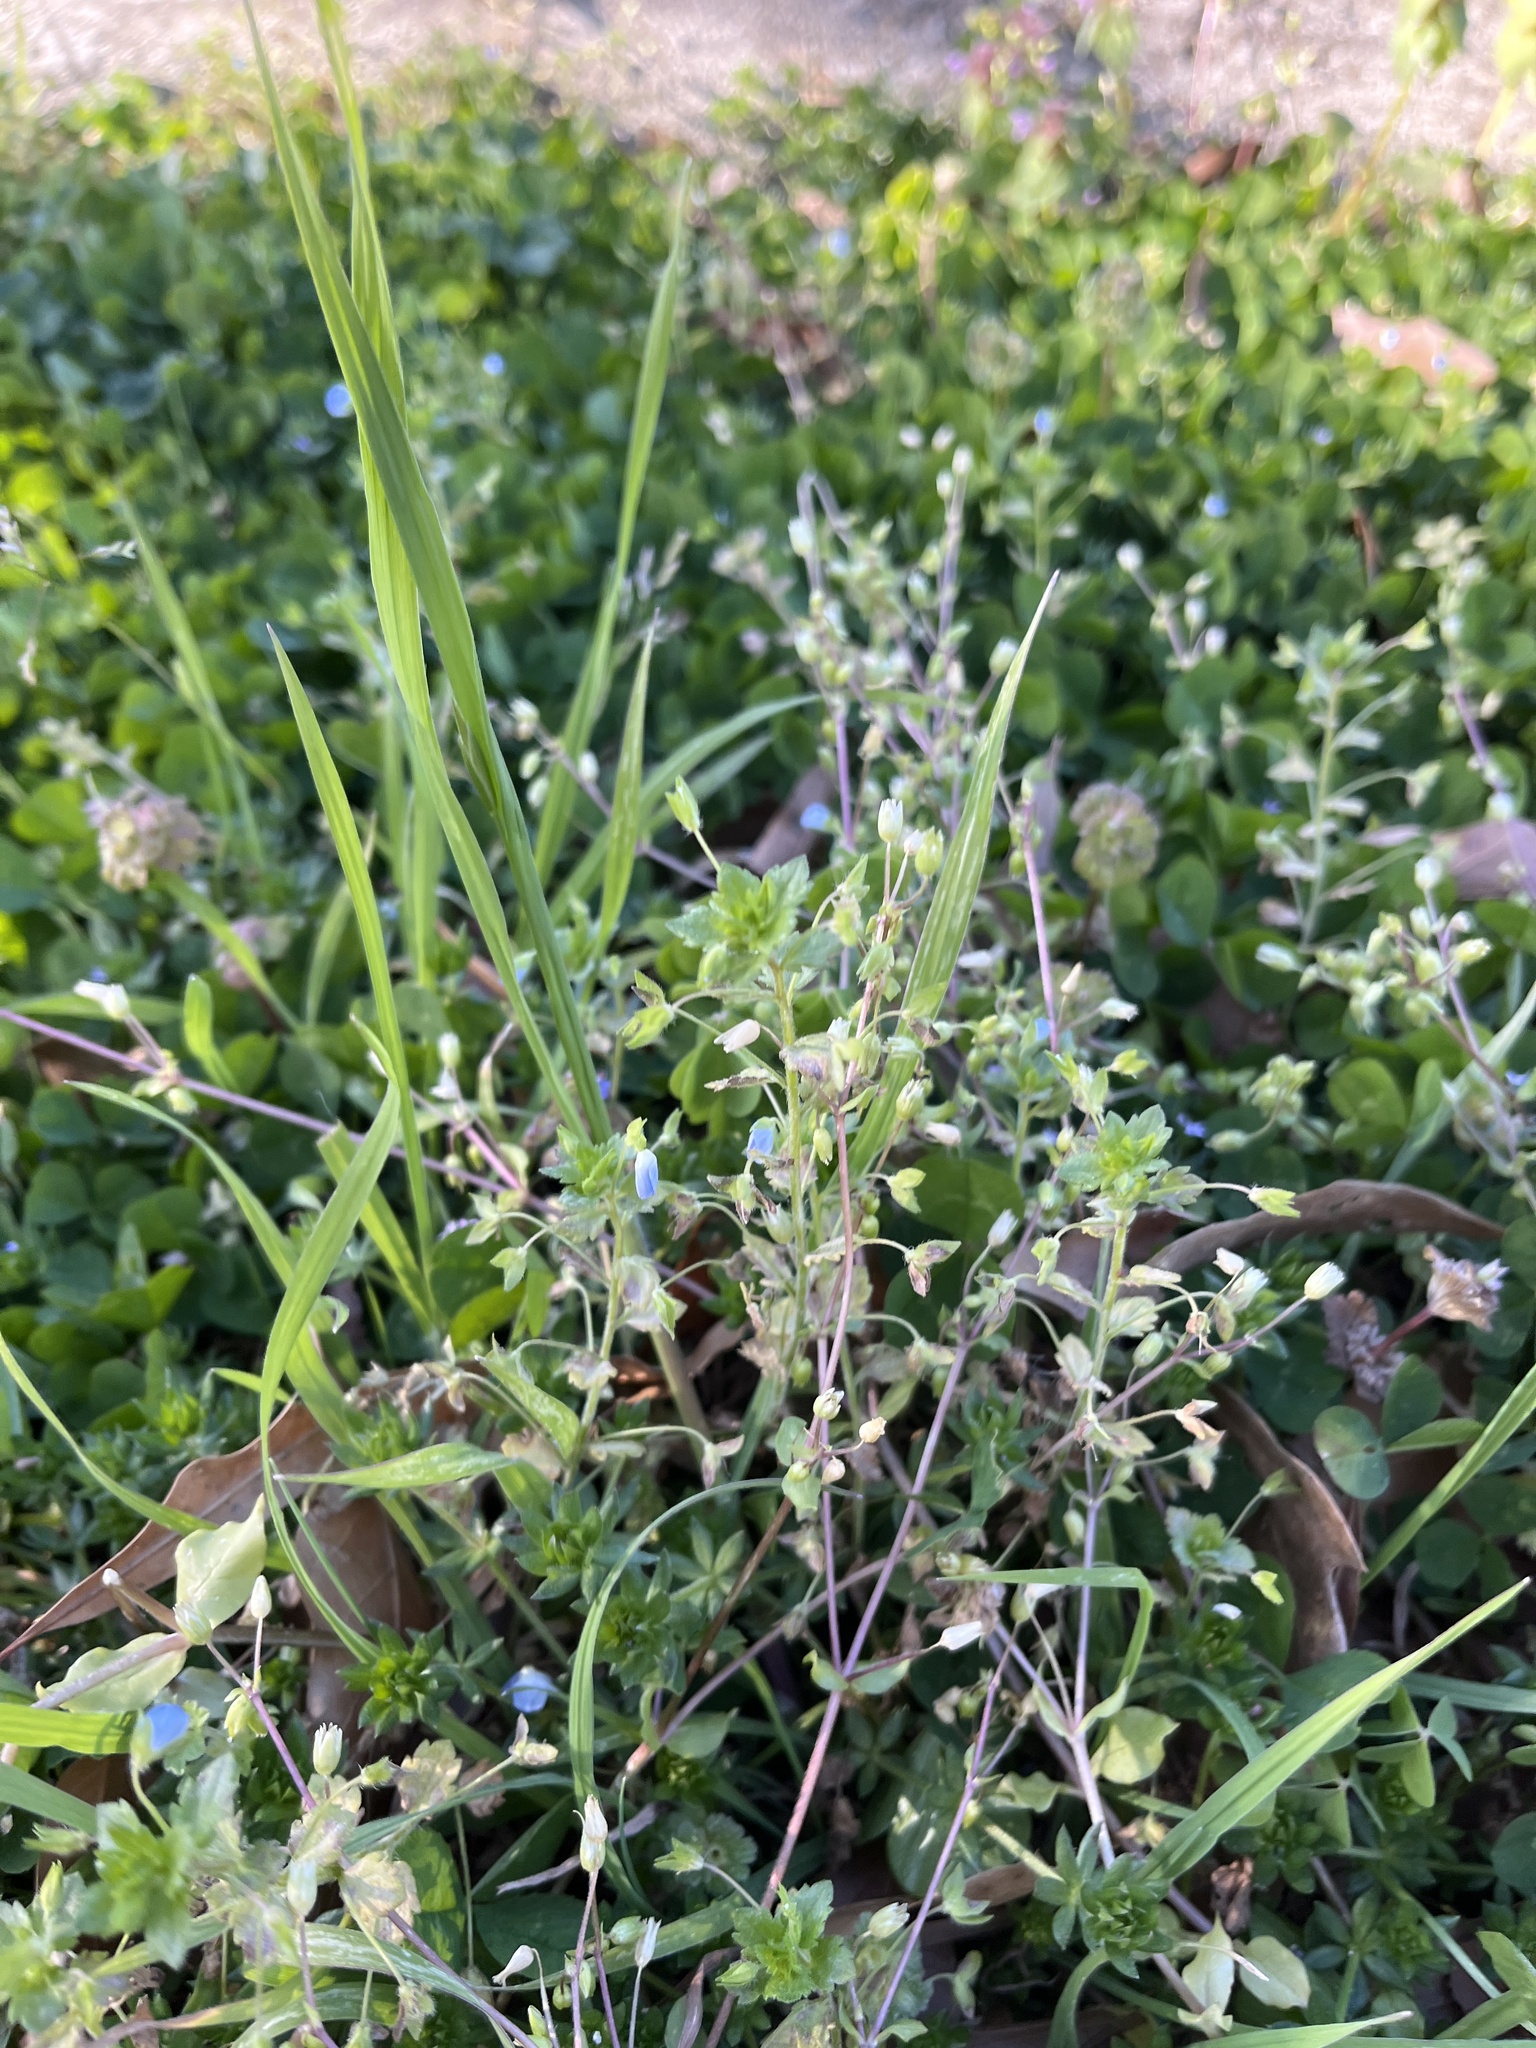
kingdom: Plantae
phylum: Tracheophyta
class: Magnoliopsida
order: Lamiales
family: Plantaginaceae
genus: Veronica
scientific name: Veronica persica
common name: Common field-speedwell
